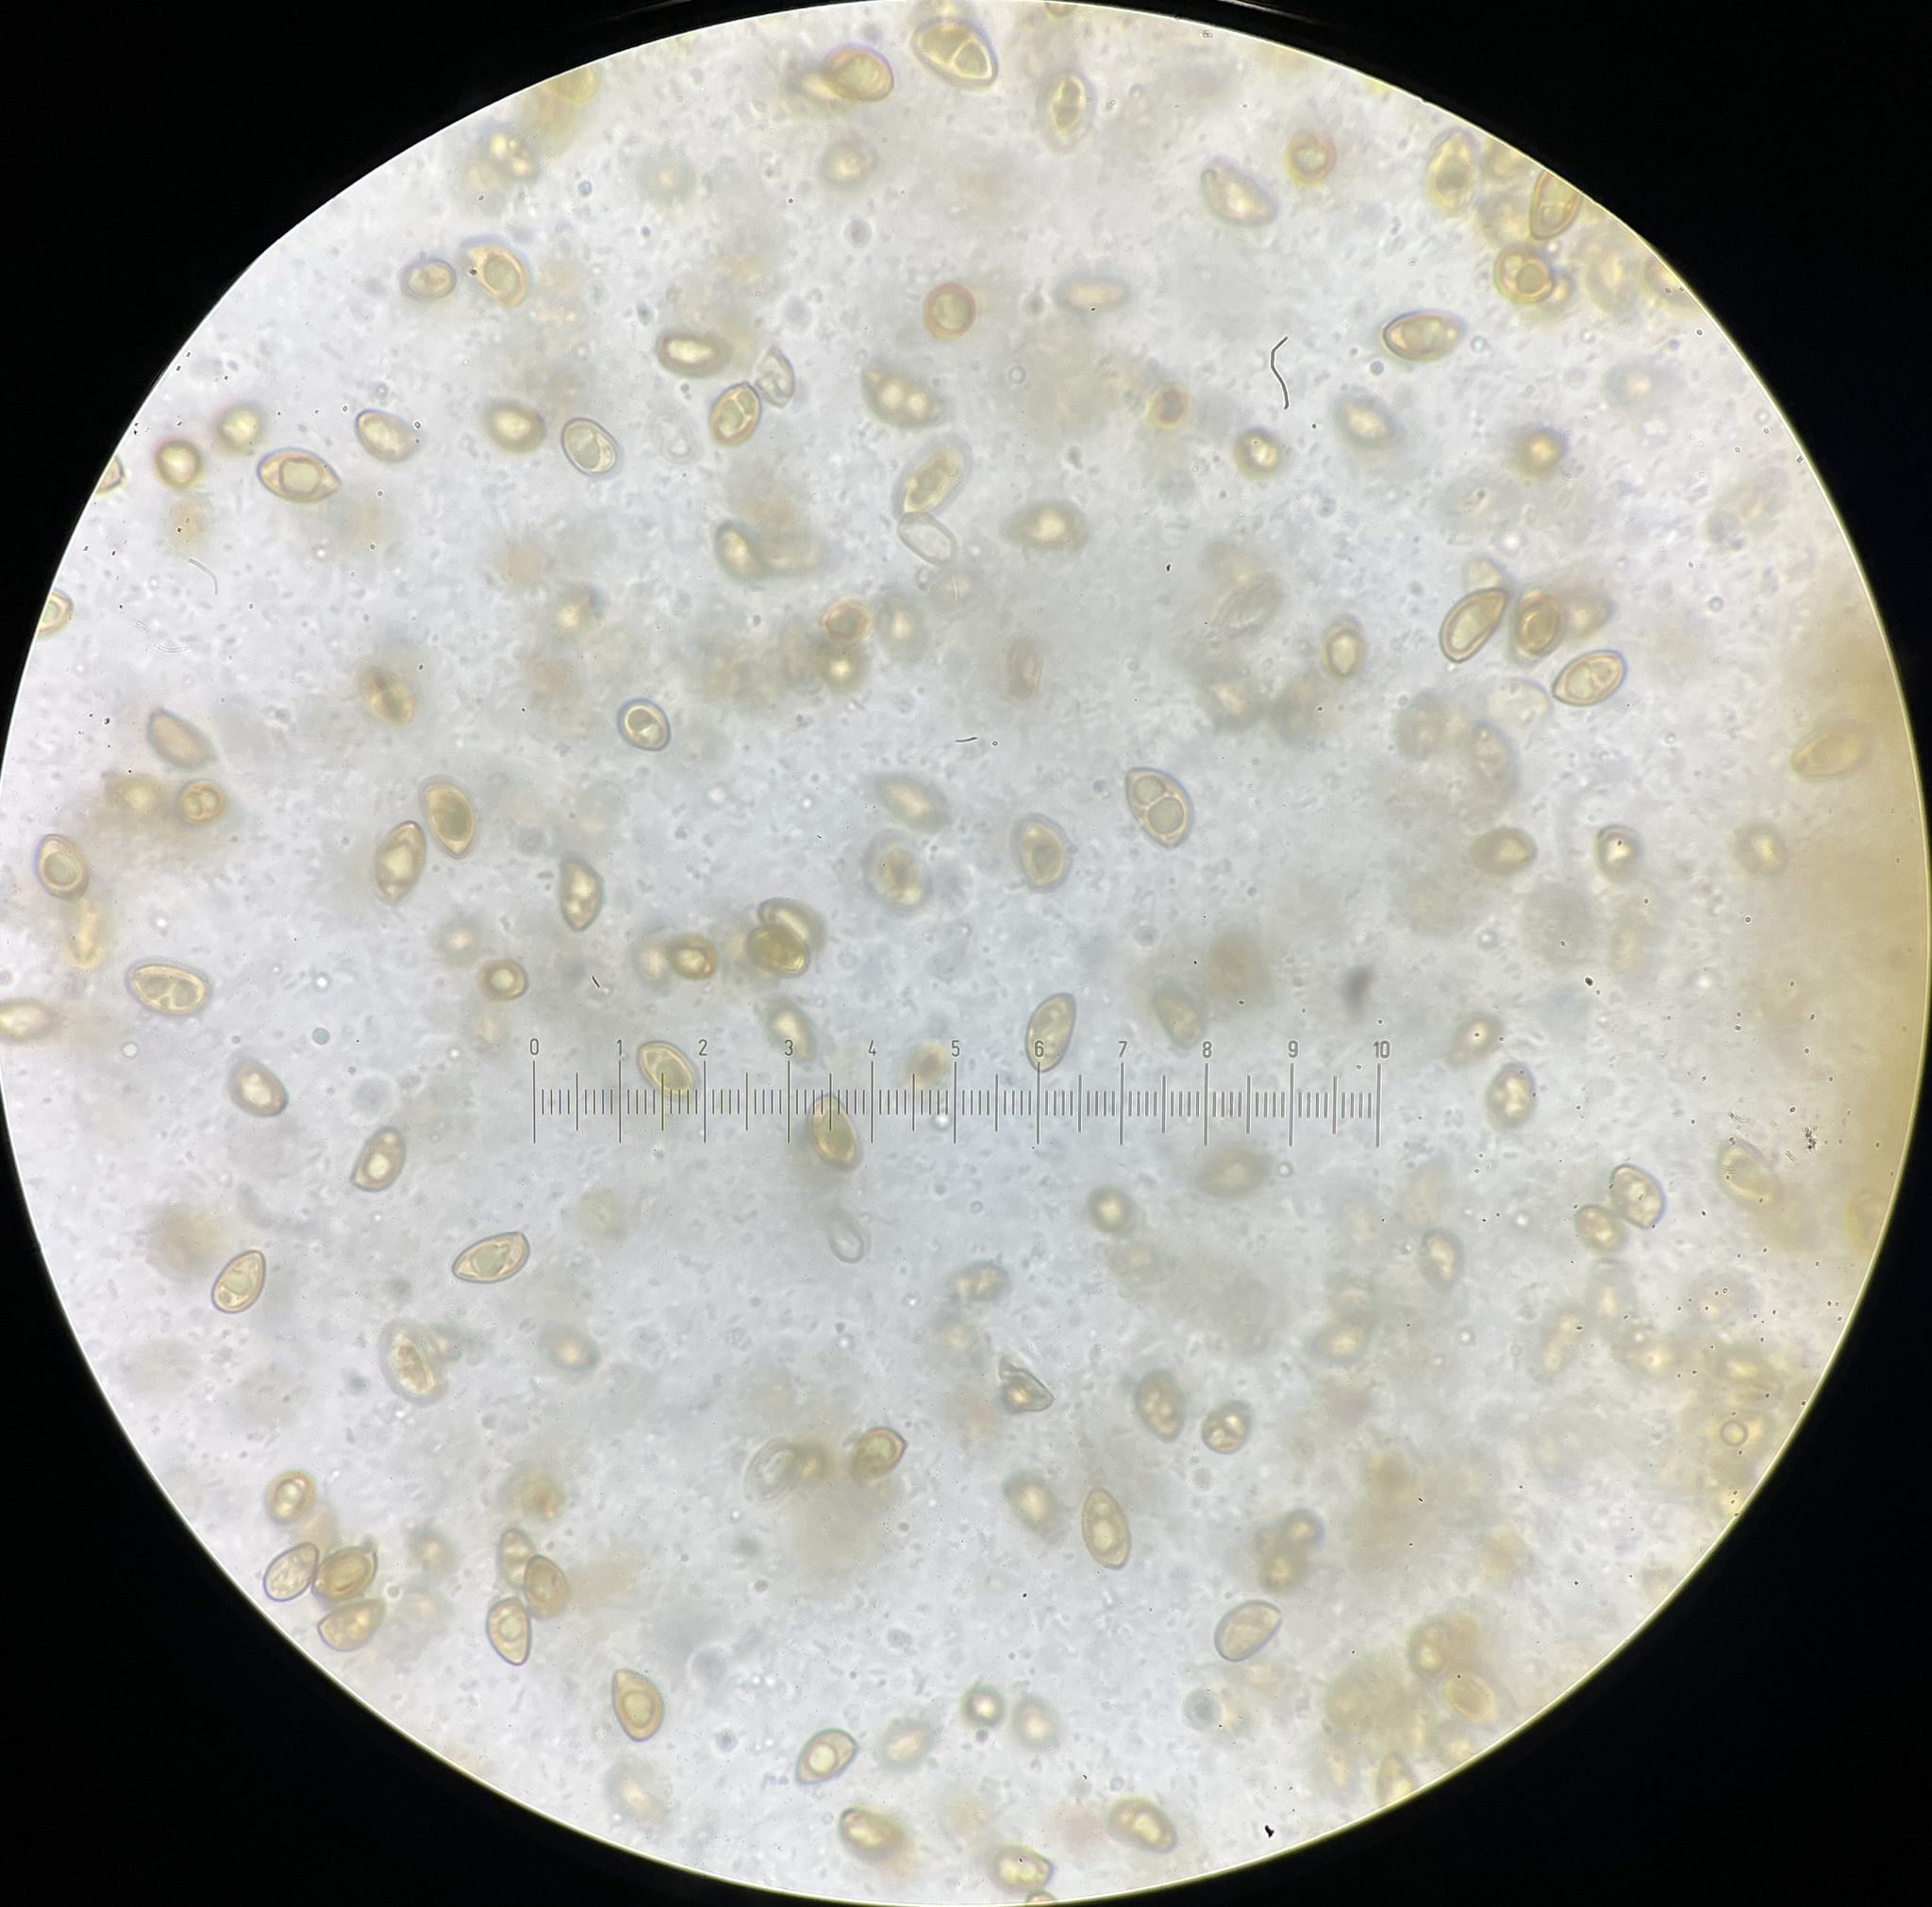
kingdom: Fungi
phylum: Basidiomycota
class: Agaricomycetes
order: Agaricales
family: Inocybaceae
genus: Inocybe
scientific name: Inocybe flocculosa
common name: Fleecy fibrecap
